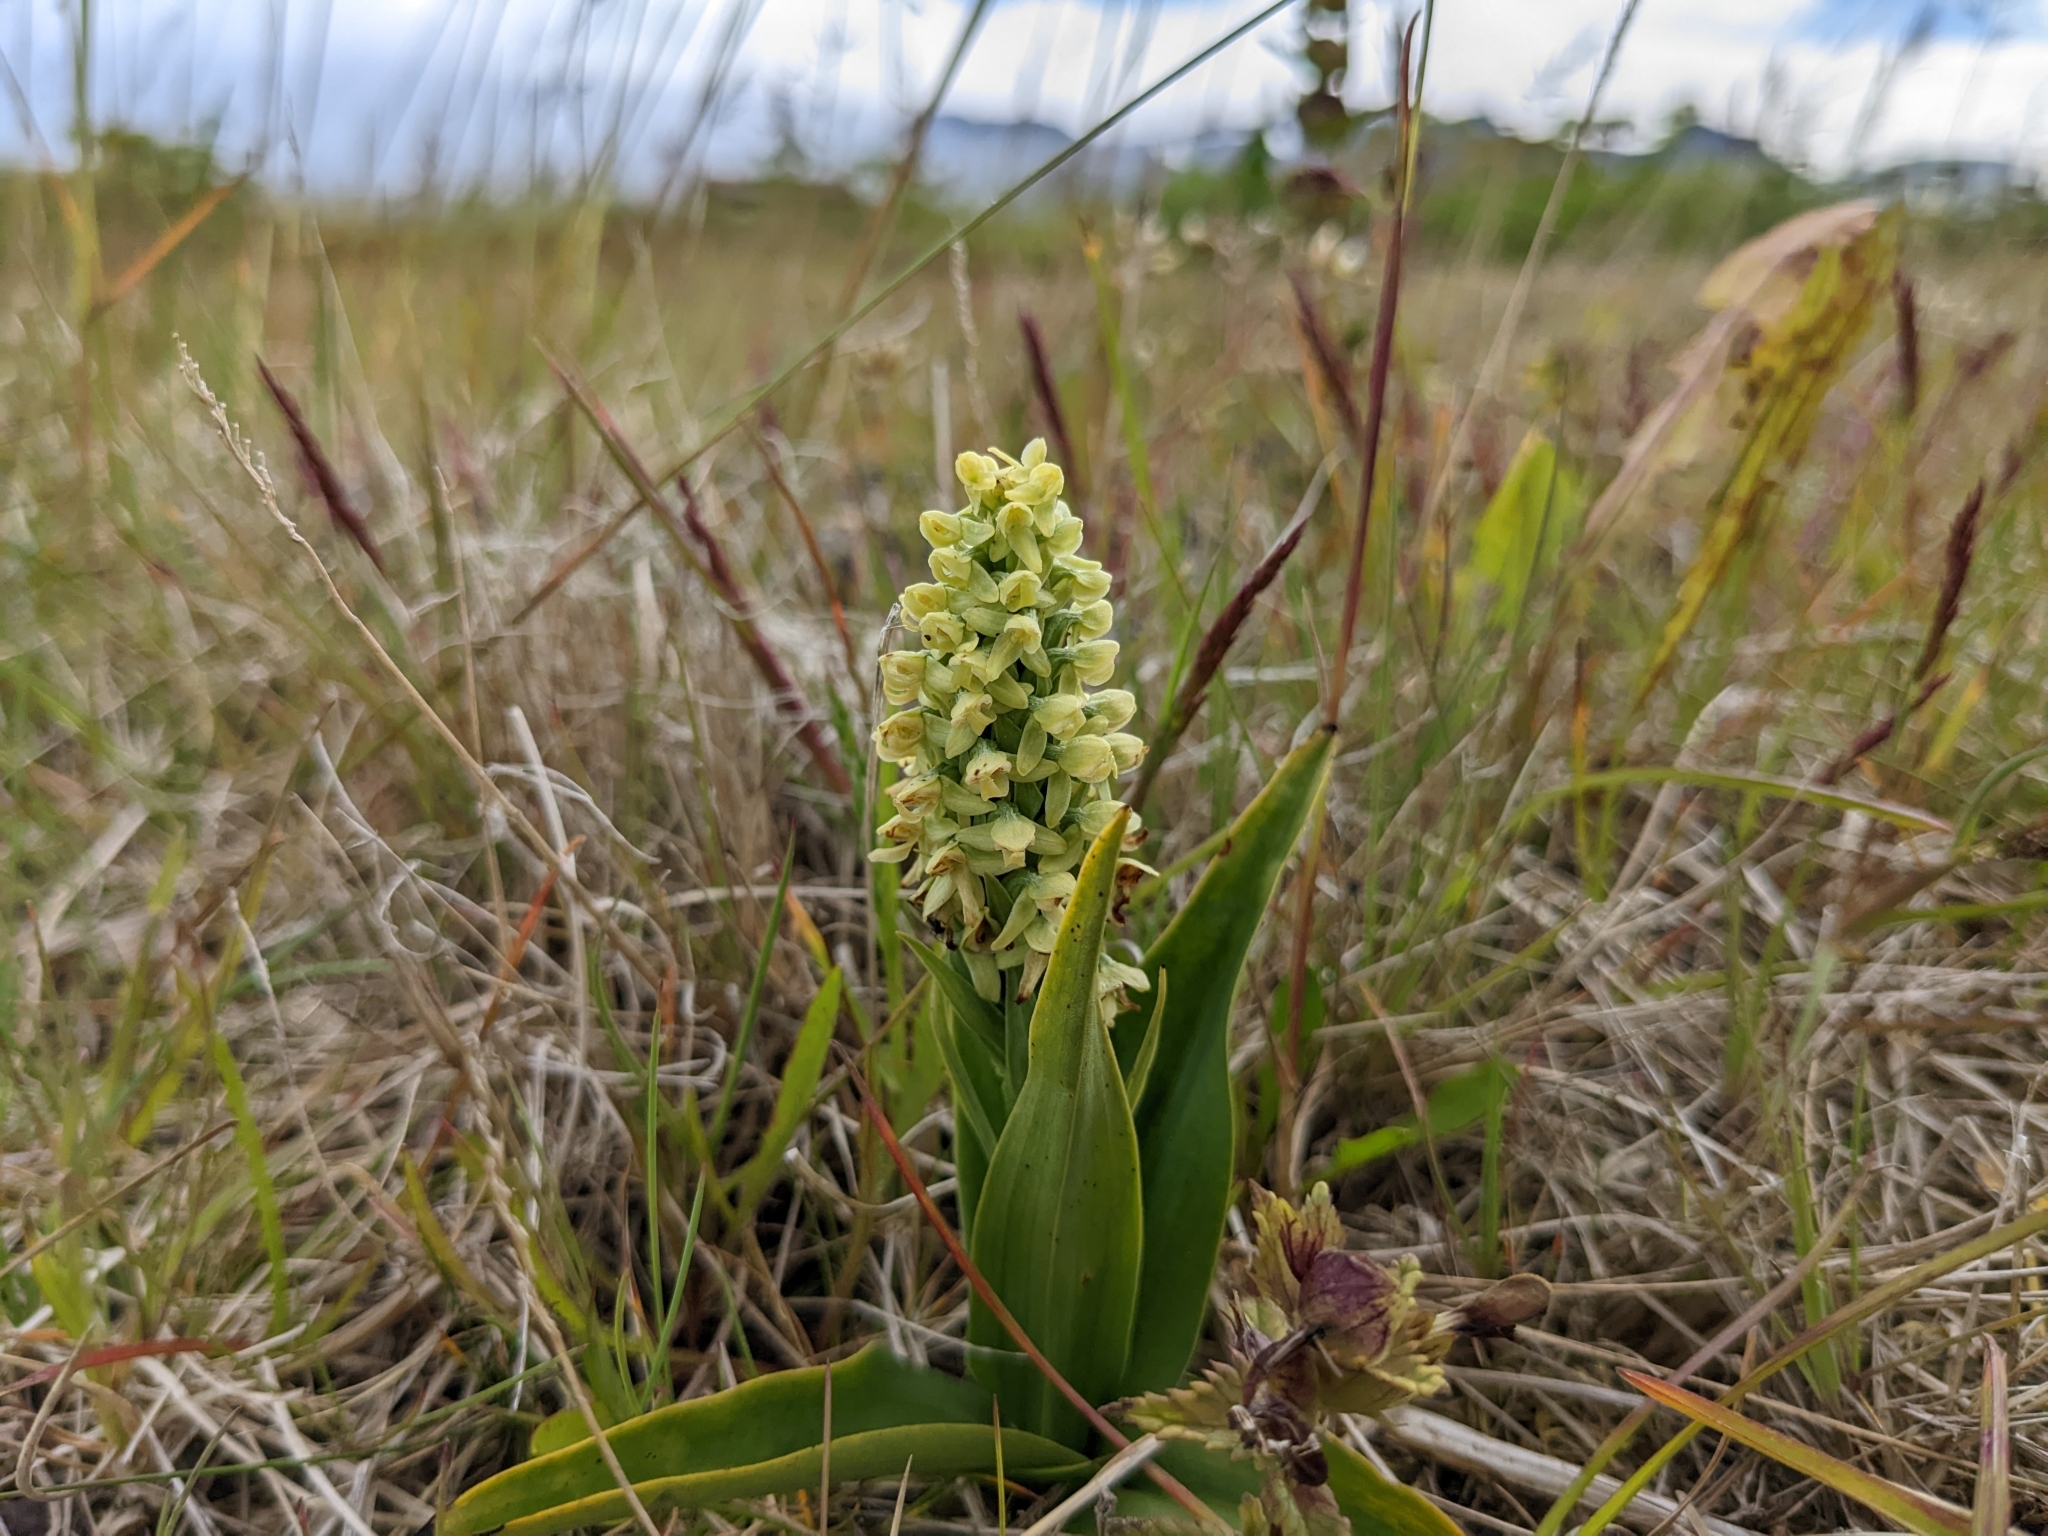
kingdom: Plantae
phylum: Tracheophyta
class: Liliopsida
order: Asparagales
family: Orchidaceae
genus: Platanthera
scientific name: Platanthera hyperborea
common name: Northern green orchid
